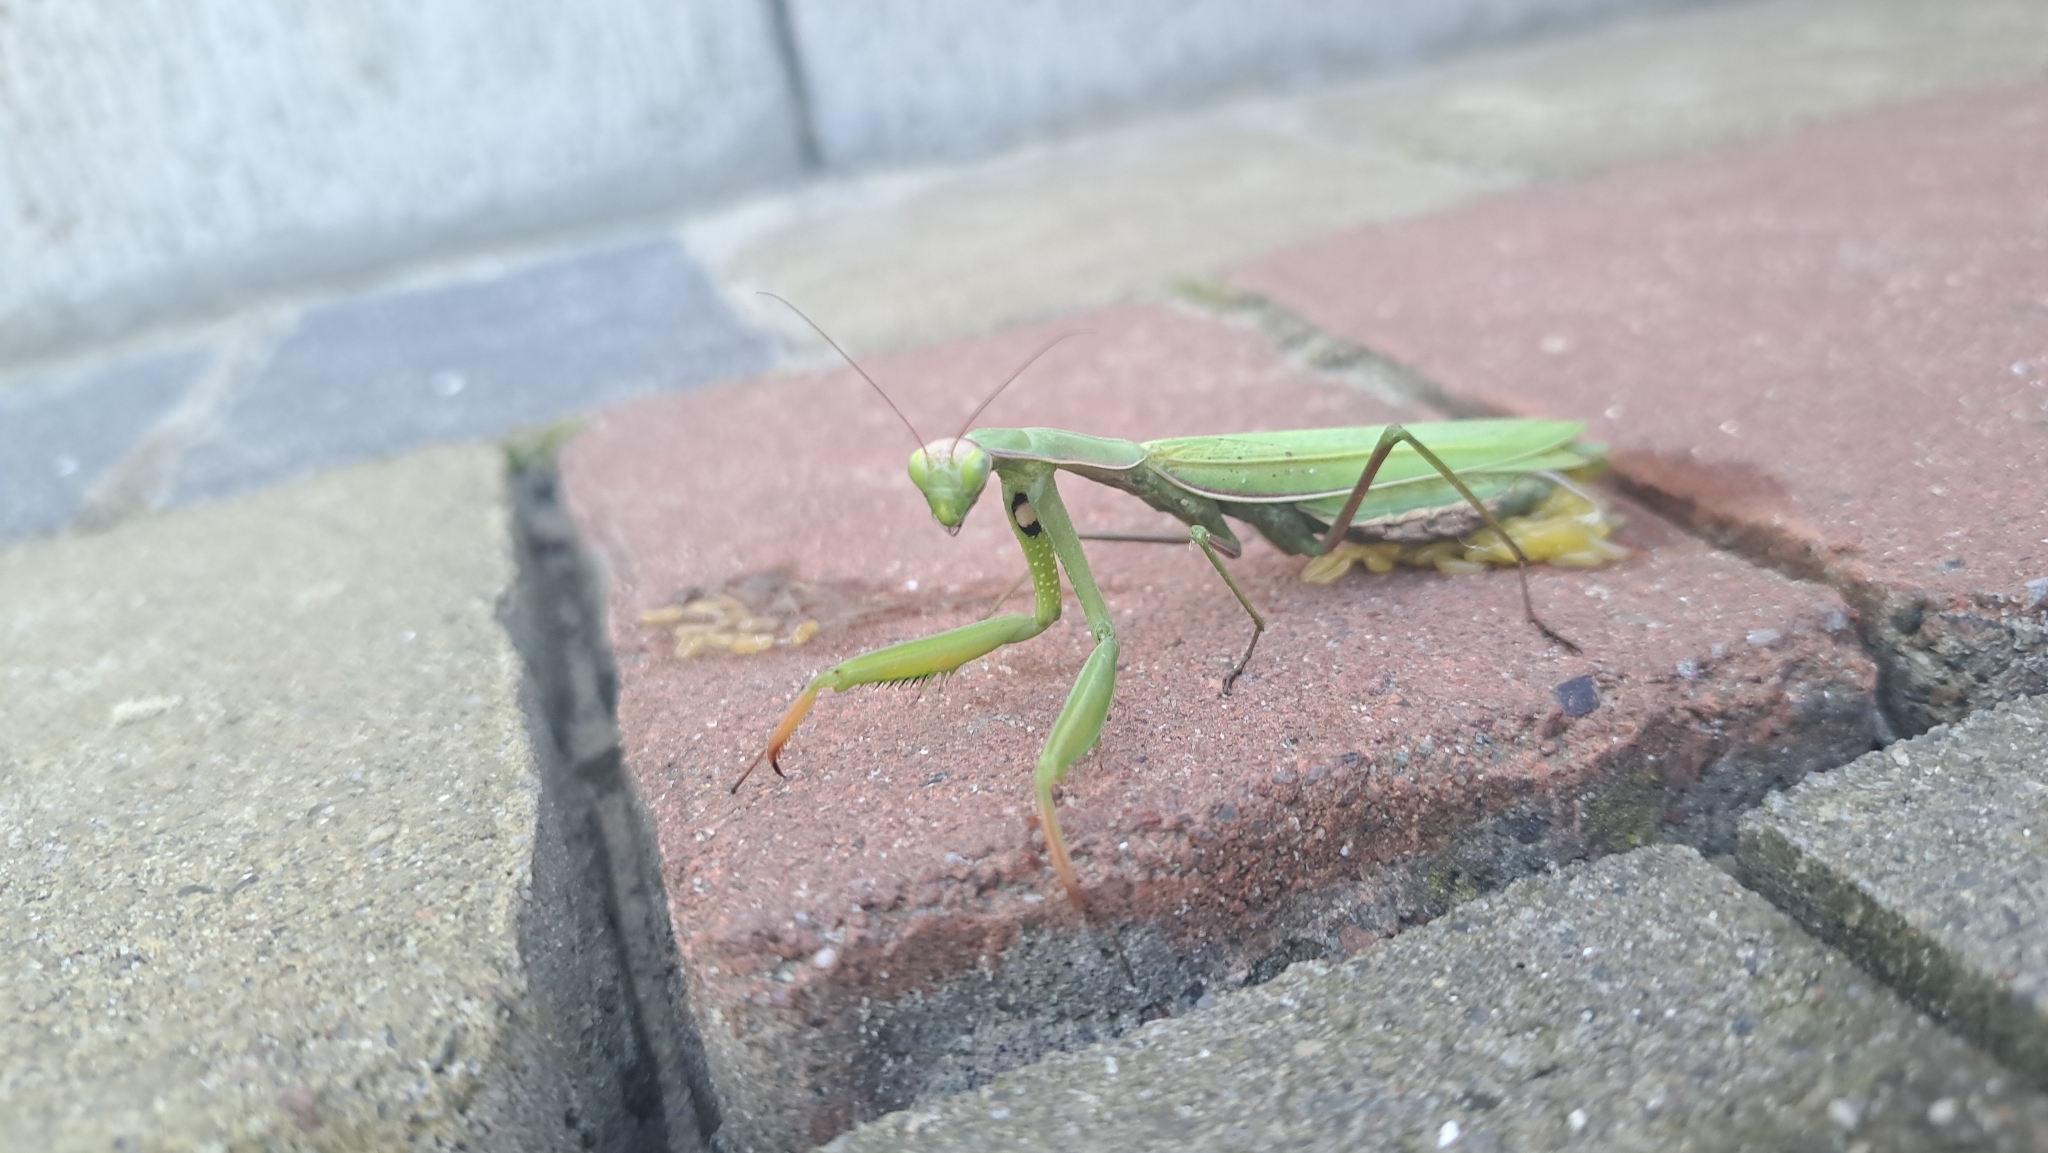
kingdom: Animalia
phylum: Arthropoda
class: Insecta
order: Mantodea
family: Mantidae
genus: Mantis
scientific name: Mantis religiosa
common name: Praying mantis
